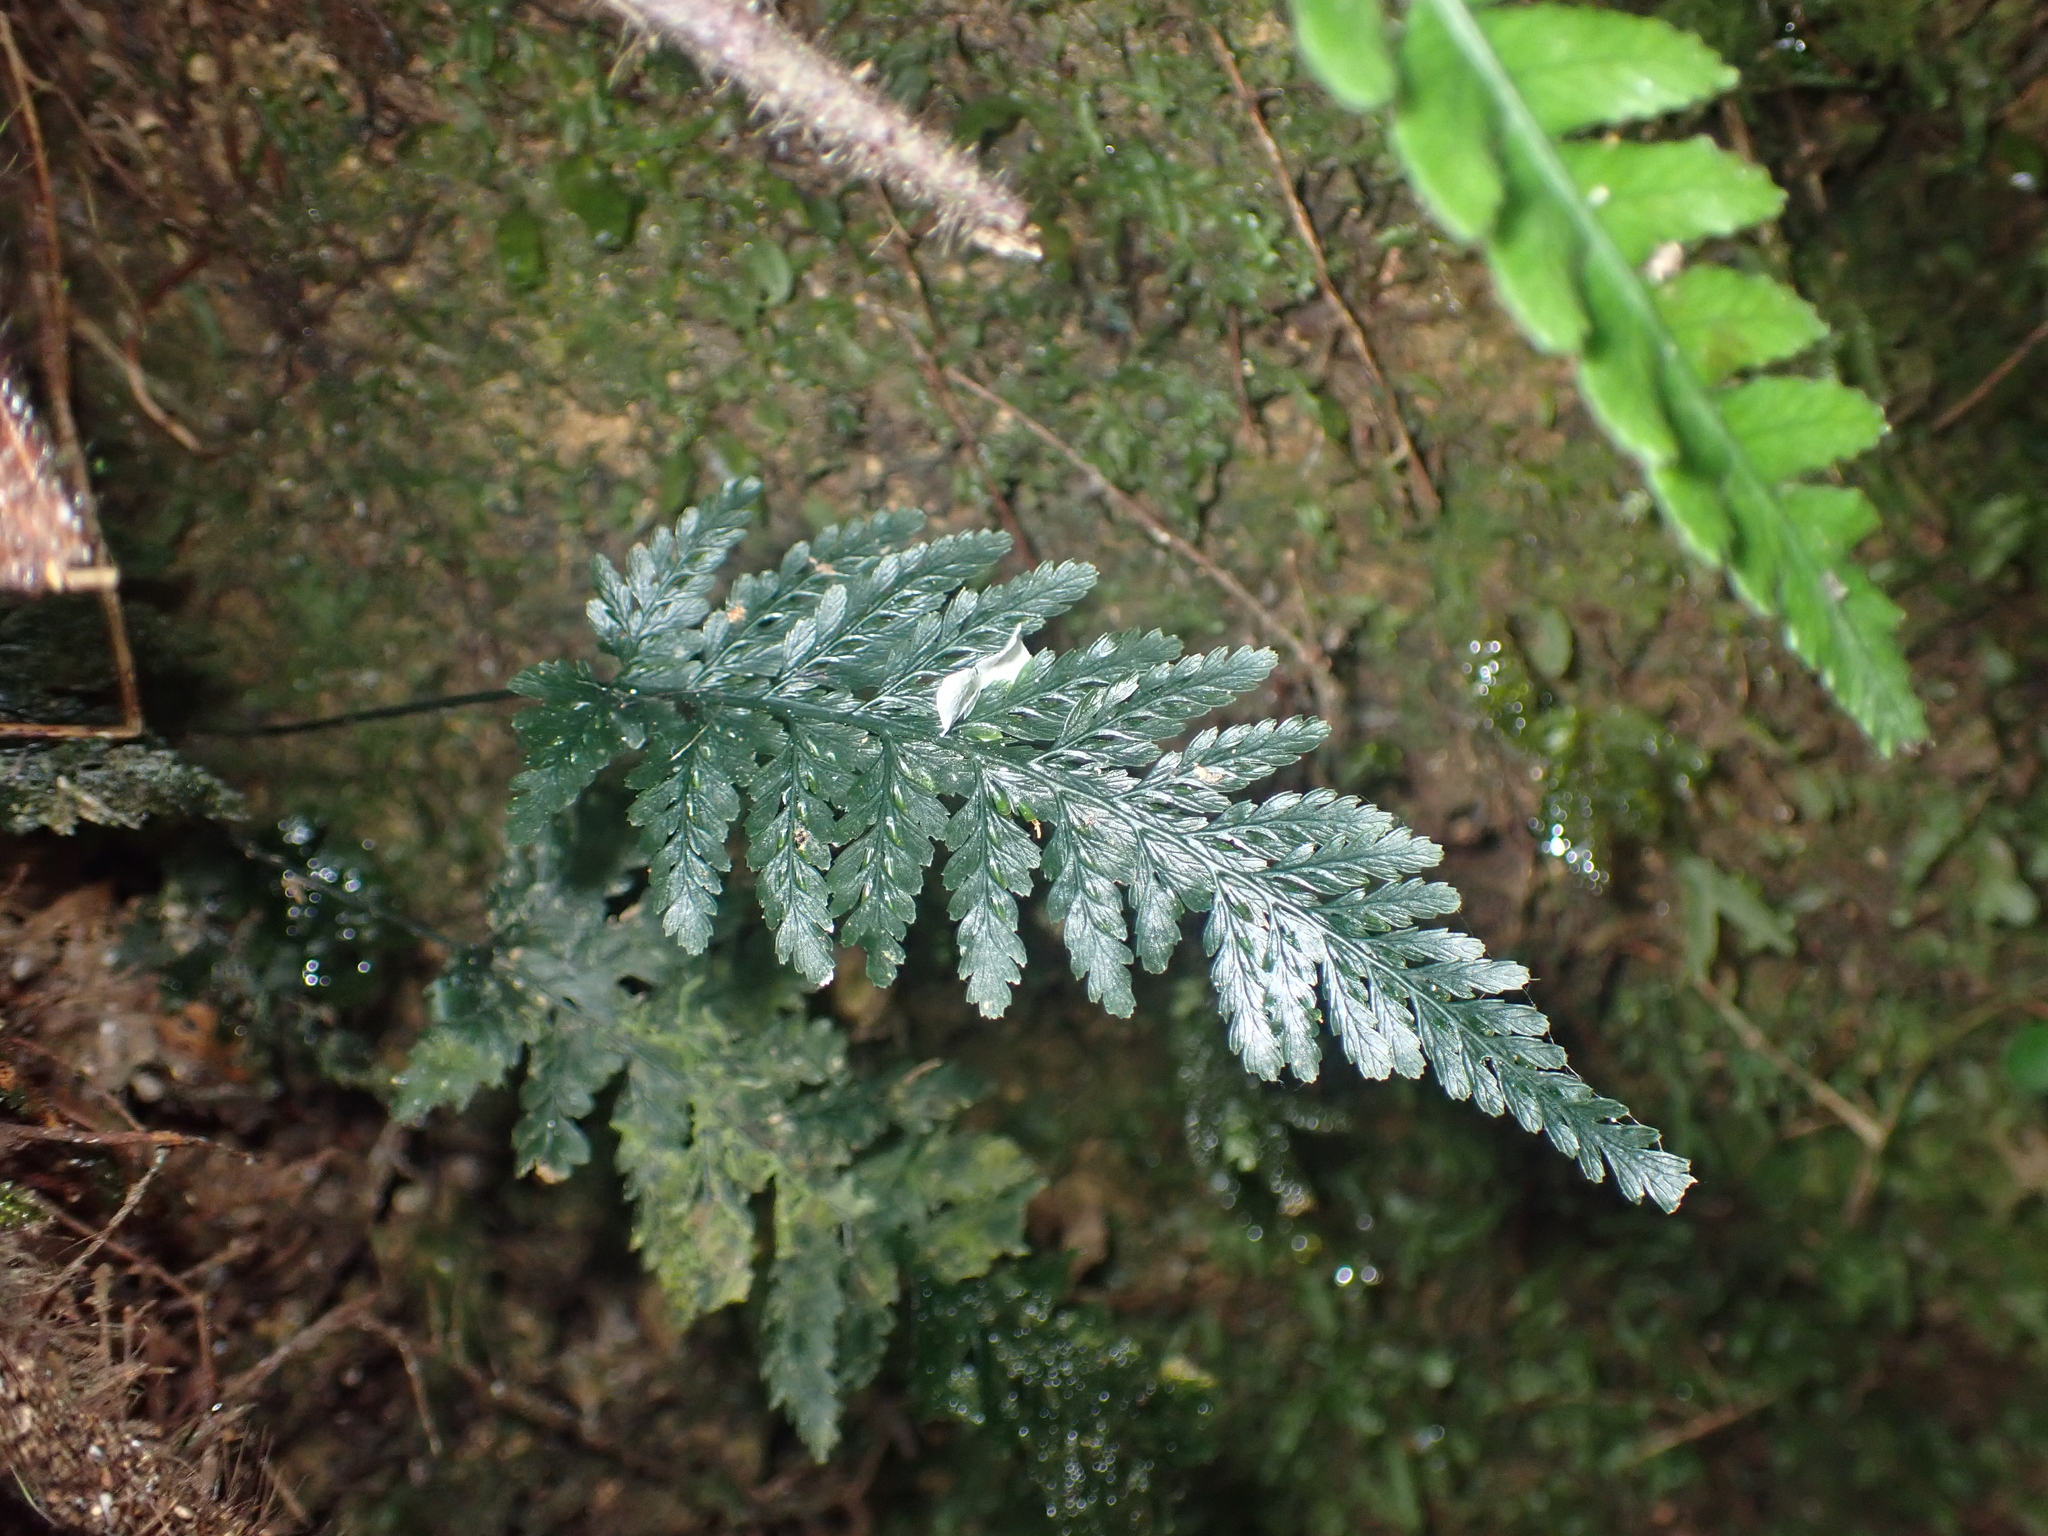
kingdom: Plantae
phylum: Tracheophyta
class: Polypodiopsida
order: Hymenophyllales
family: Hymenophyllaceae
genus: Abrodictyum
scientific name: Abrodictyum elongatum
